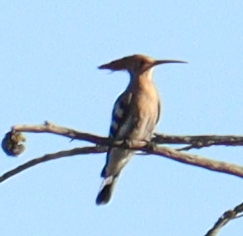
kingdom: Animalia
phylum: Chordata
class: Aves
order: Bucerotiformes
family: Upupidae
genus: Upupa
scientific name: Upupa epops
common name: Eurasian hoopoe
